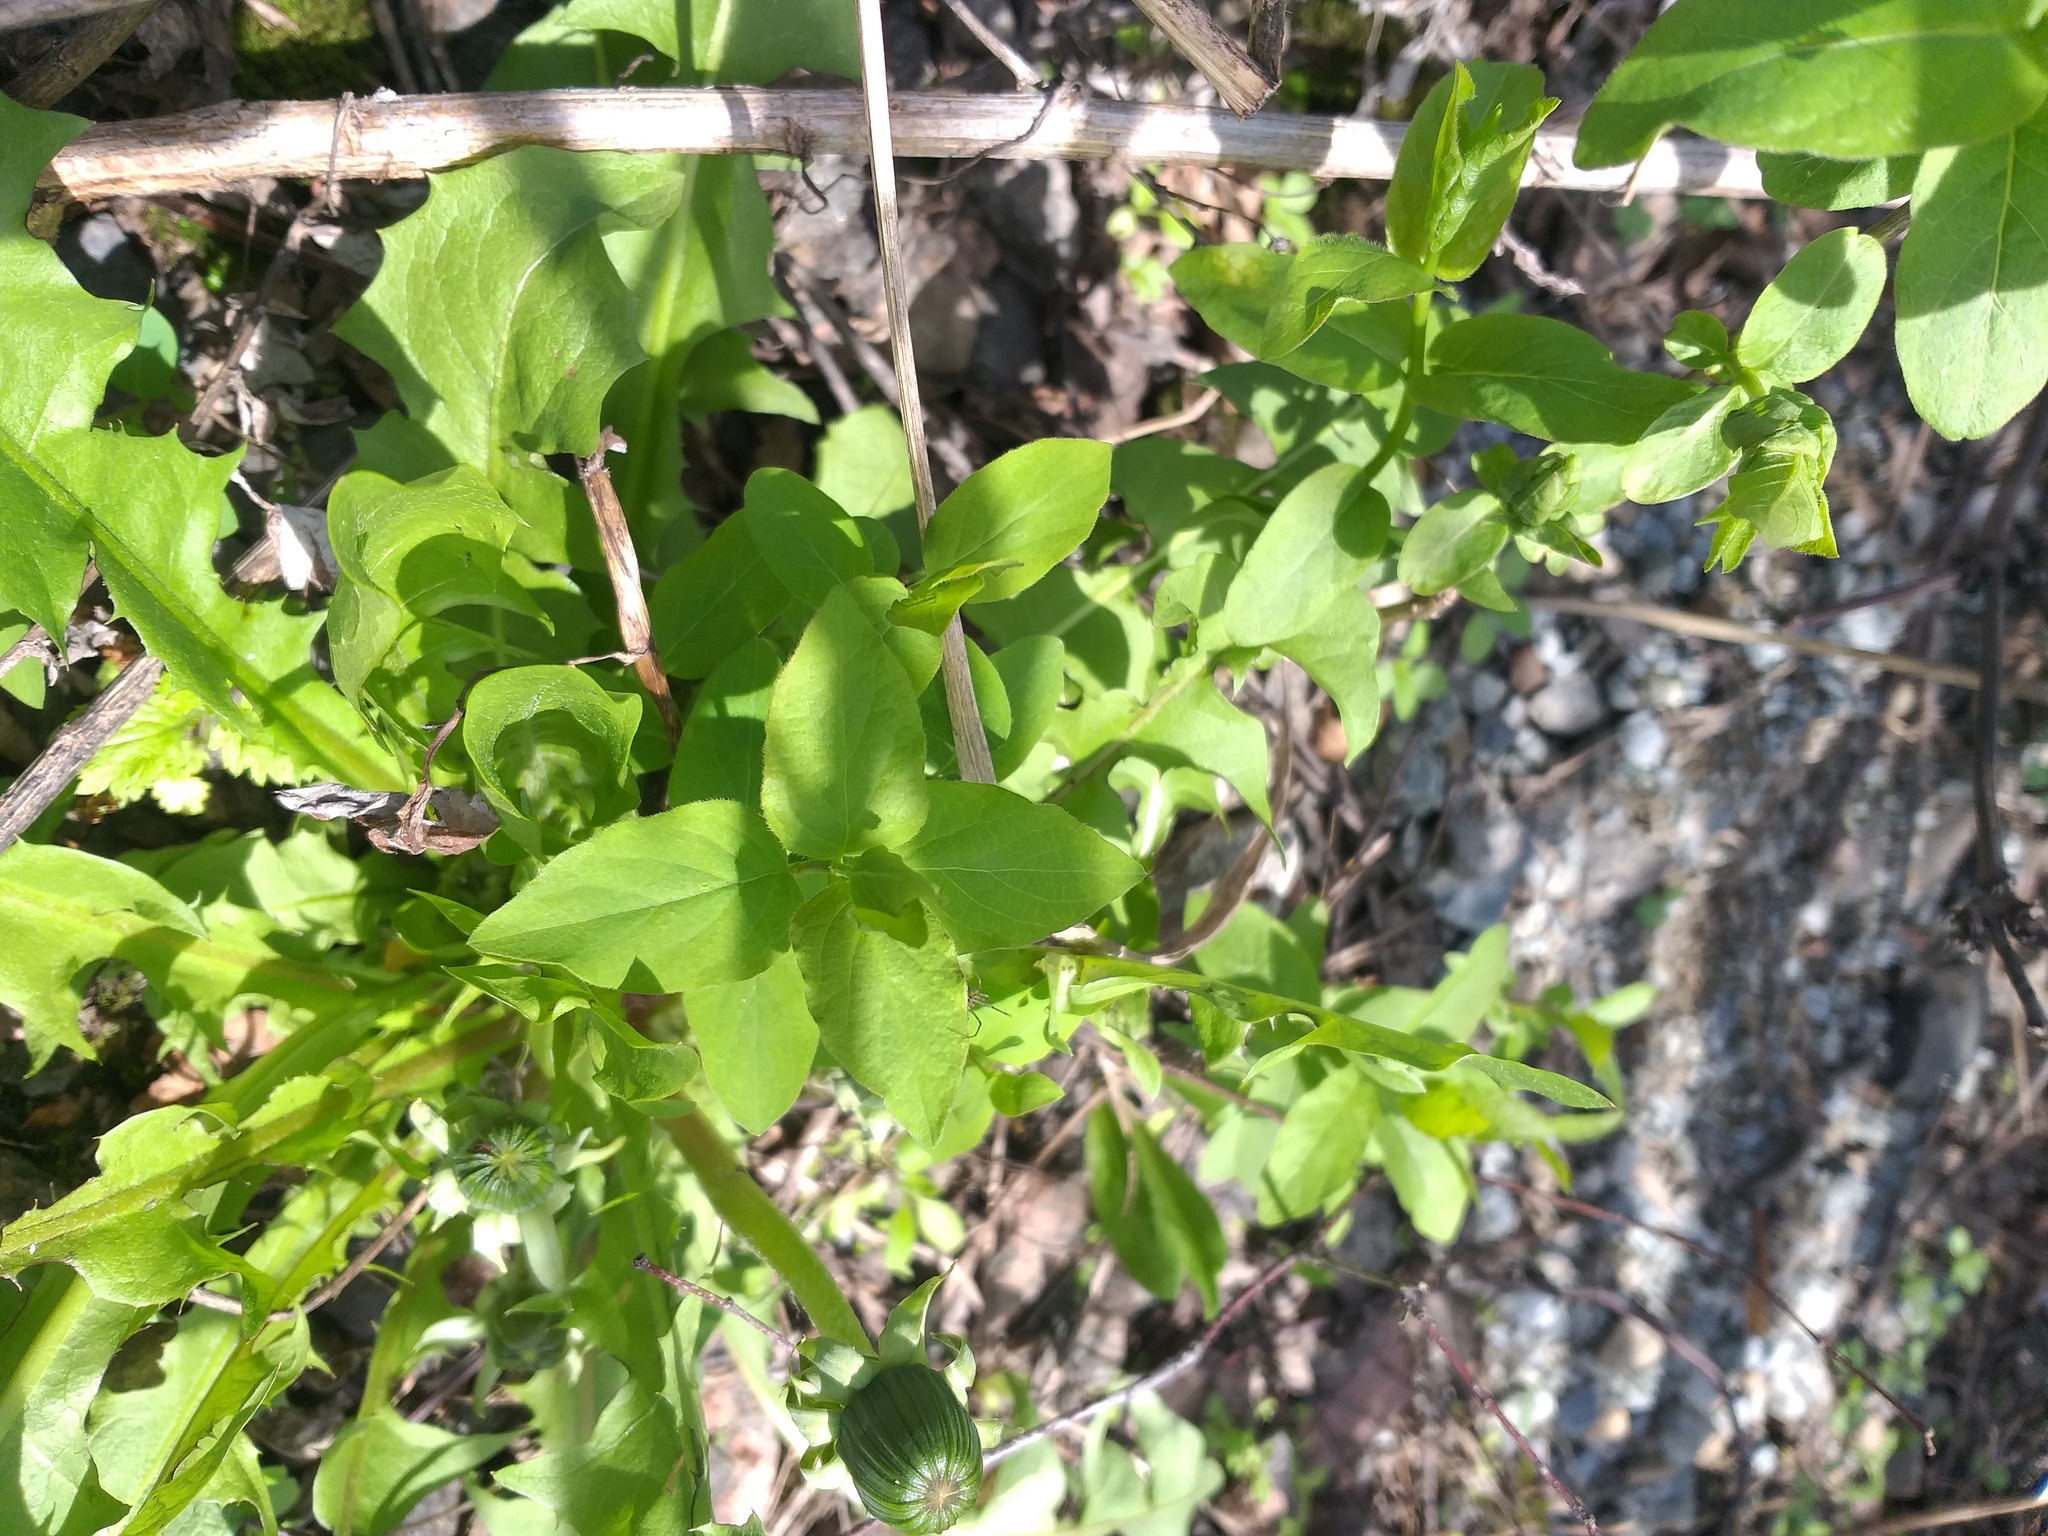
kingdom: Plantae
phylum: Tracheophyta
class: Magnoliopsida
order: Dipsacales
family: Caprifoliaceae
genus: Lonicera
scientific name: Lonicera tatarica
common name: Tatarian honeysuckle
